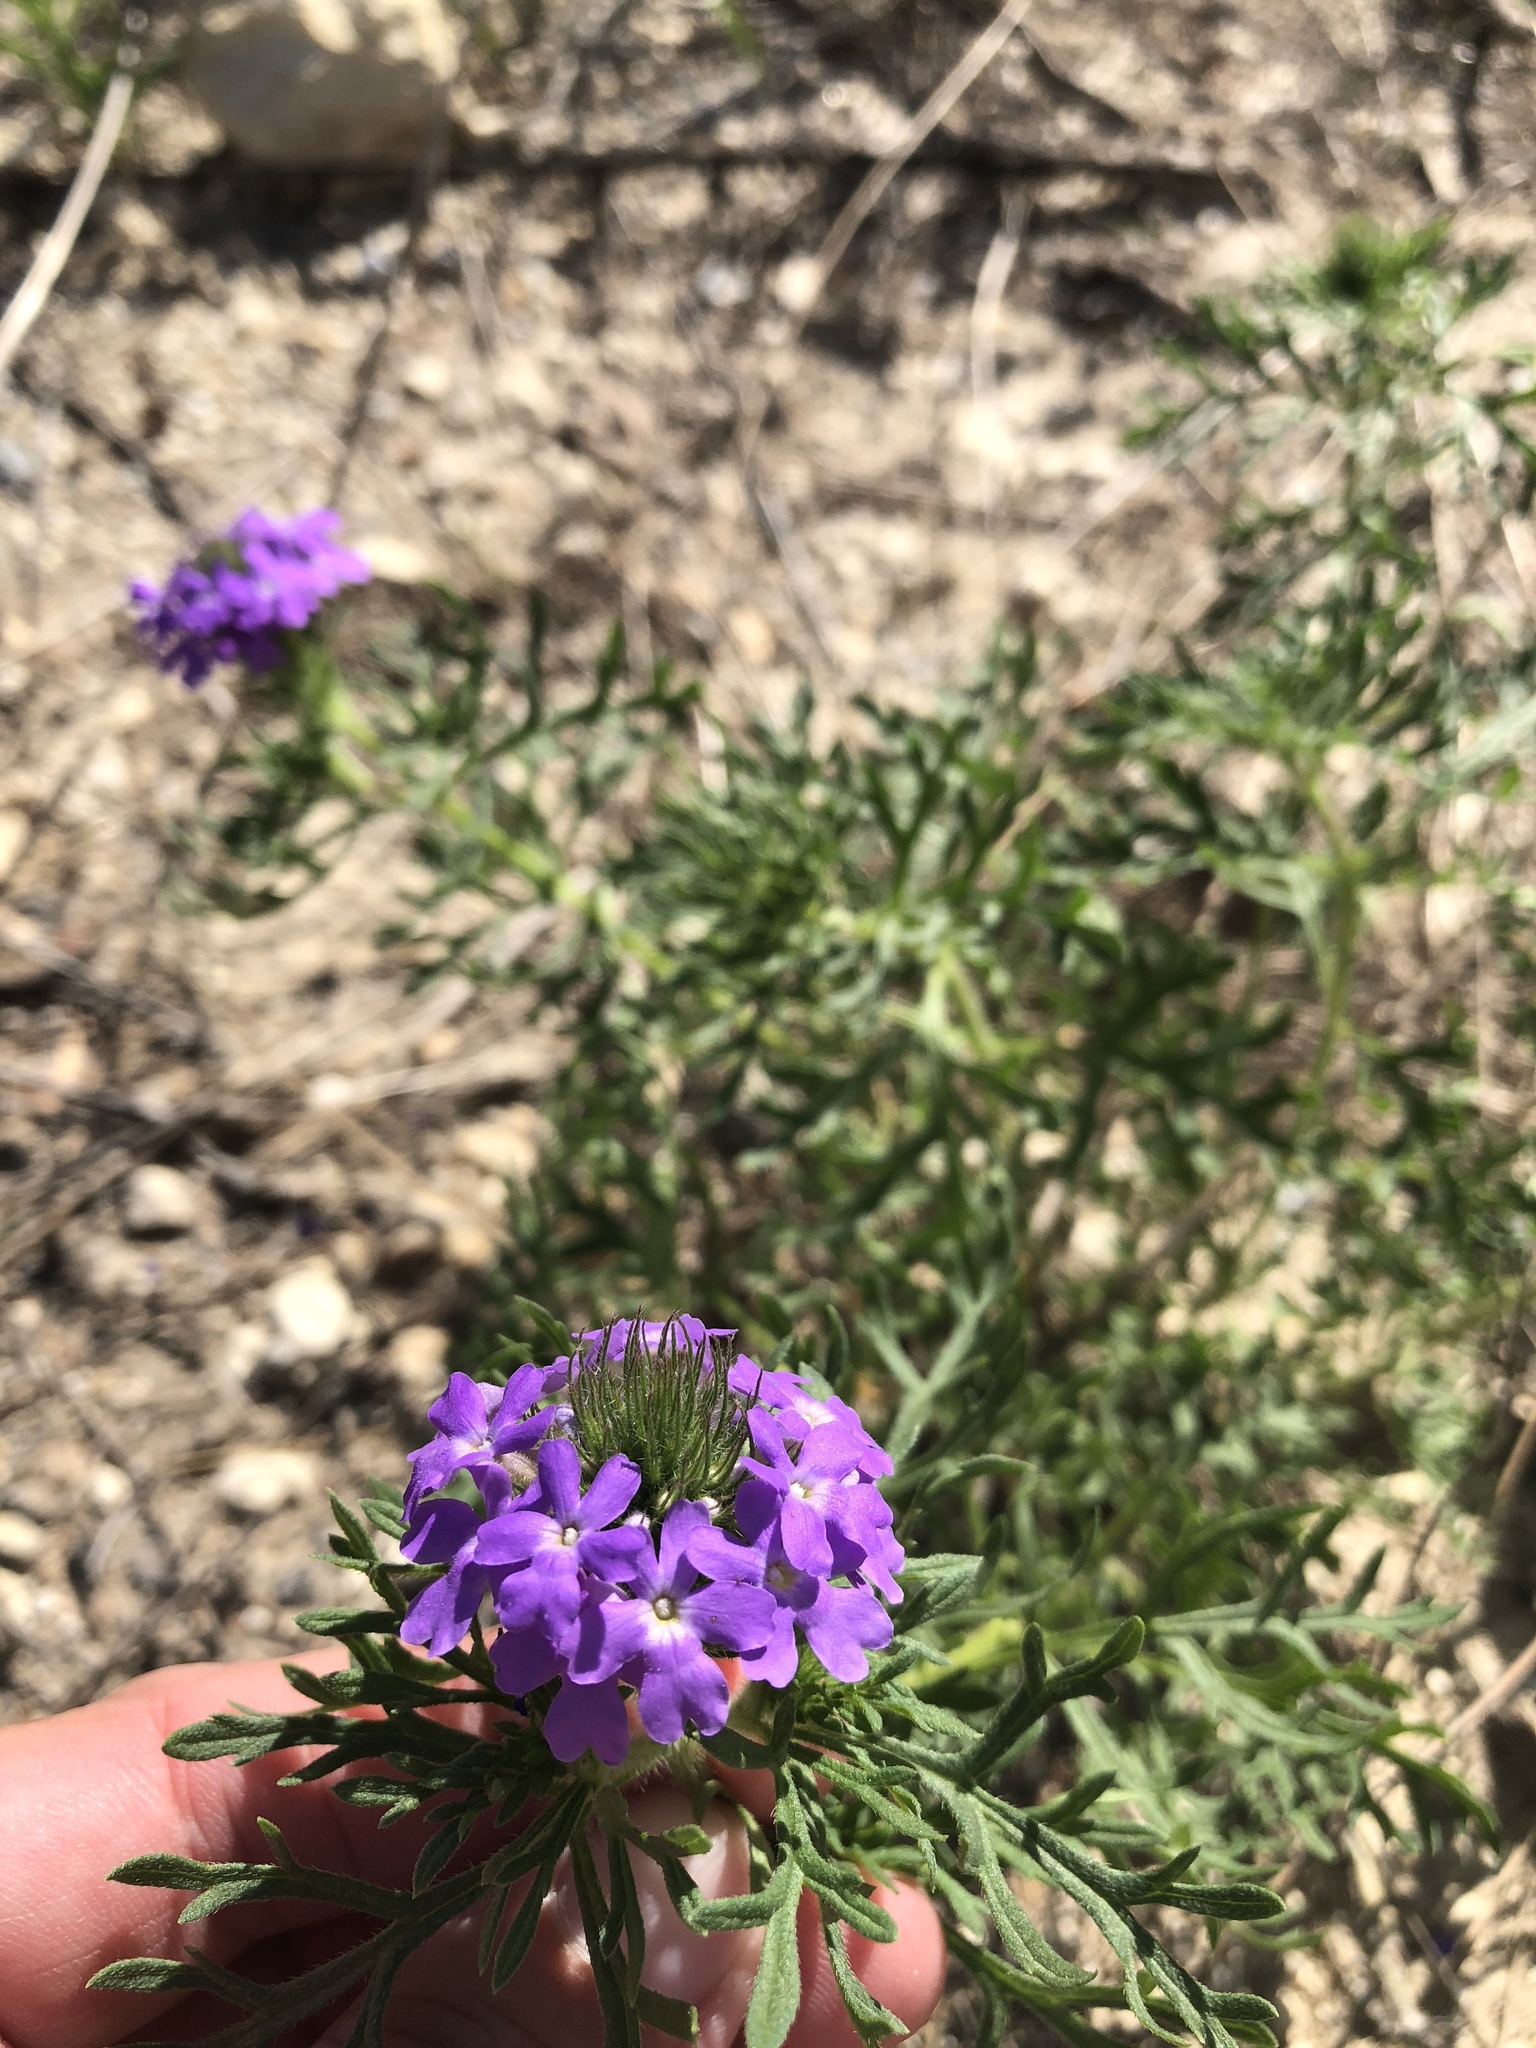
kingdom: Plantae
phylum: Tracheophyta
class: Magnoliopsida
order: Lamiales
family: Verbenaceae
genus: Verbena
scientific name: Verbena bipinnatifida
